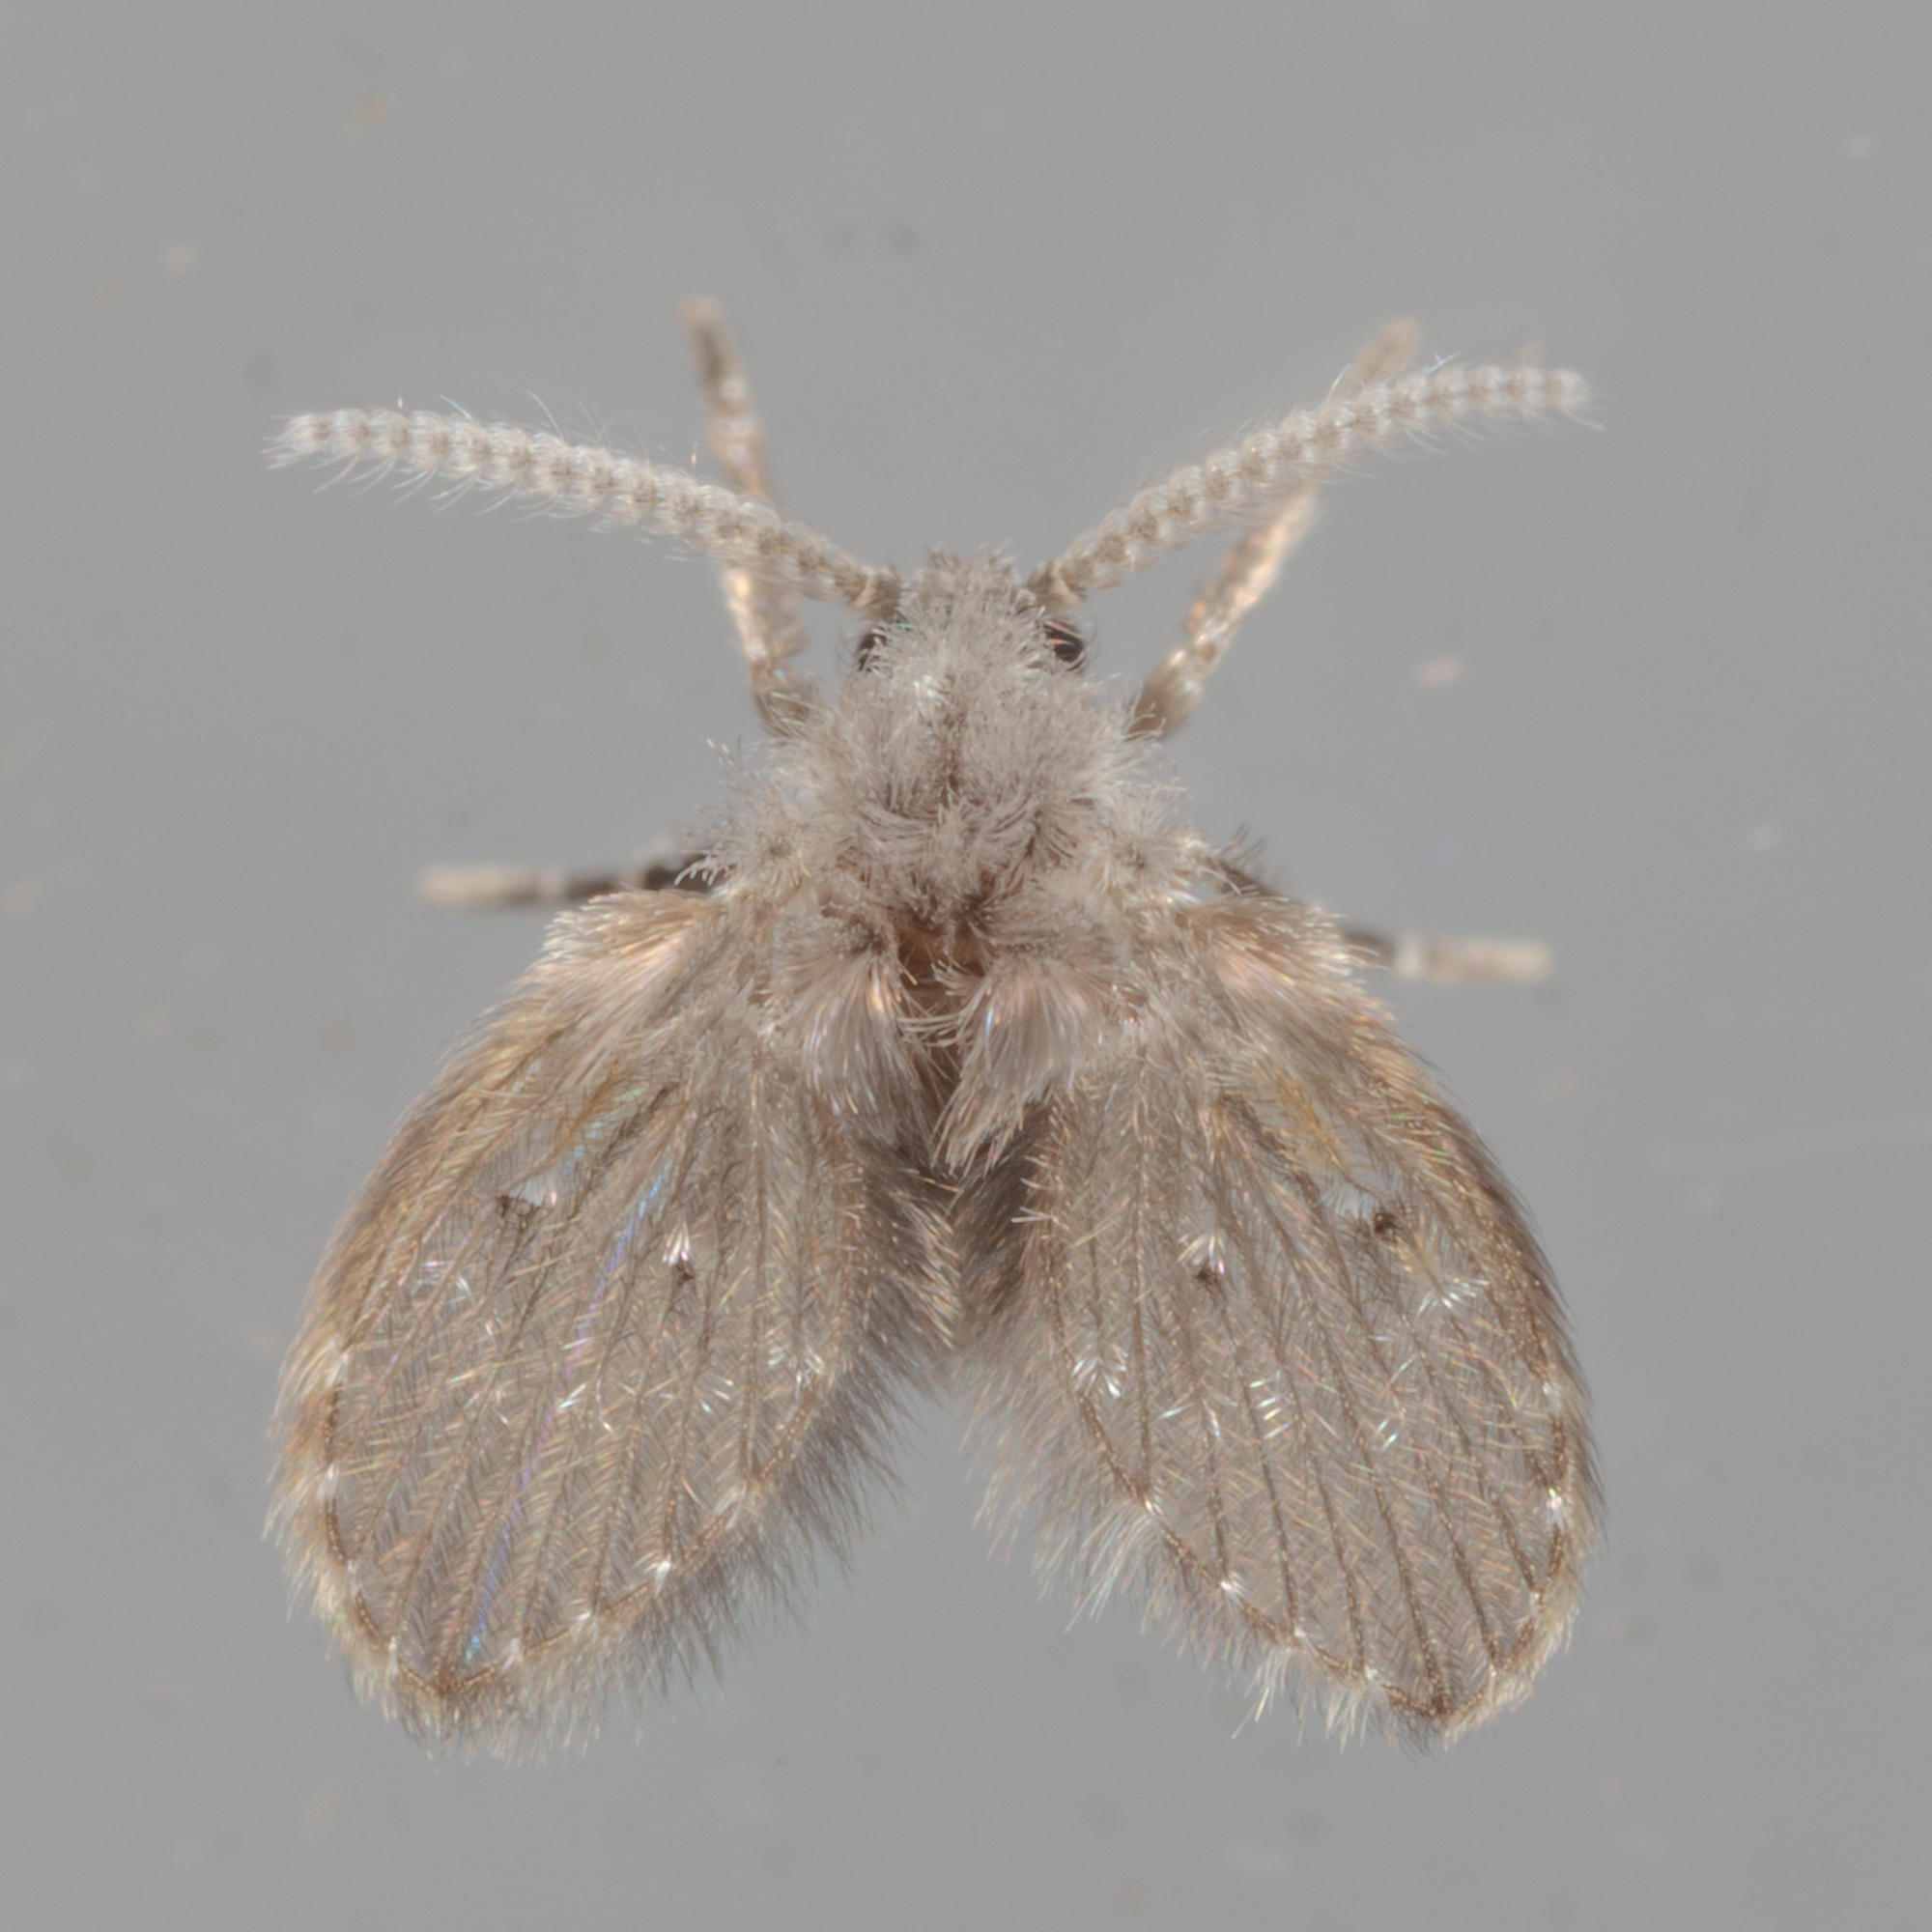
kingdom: Animalia
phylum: Arthropoda
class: Insecta
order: Diptera
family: Psychodidae
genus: Clogmia
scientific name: Clogmia albipunctatus
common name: White-spotted moth fly
